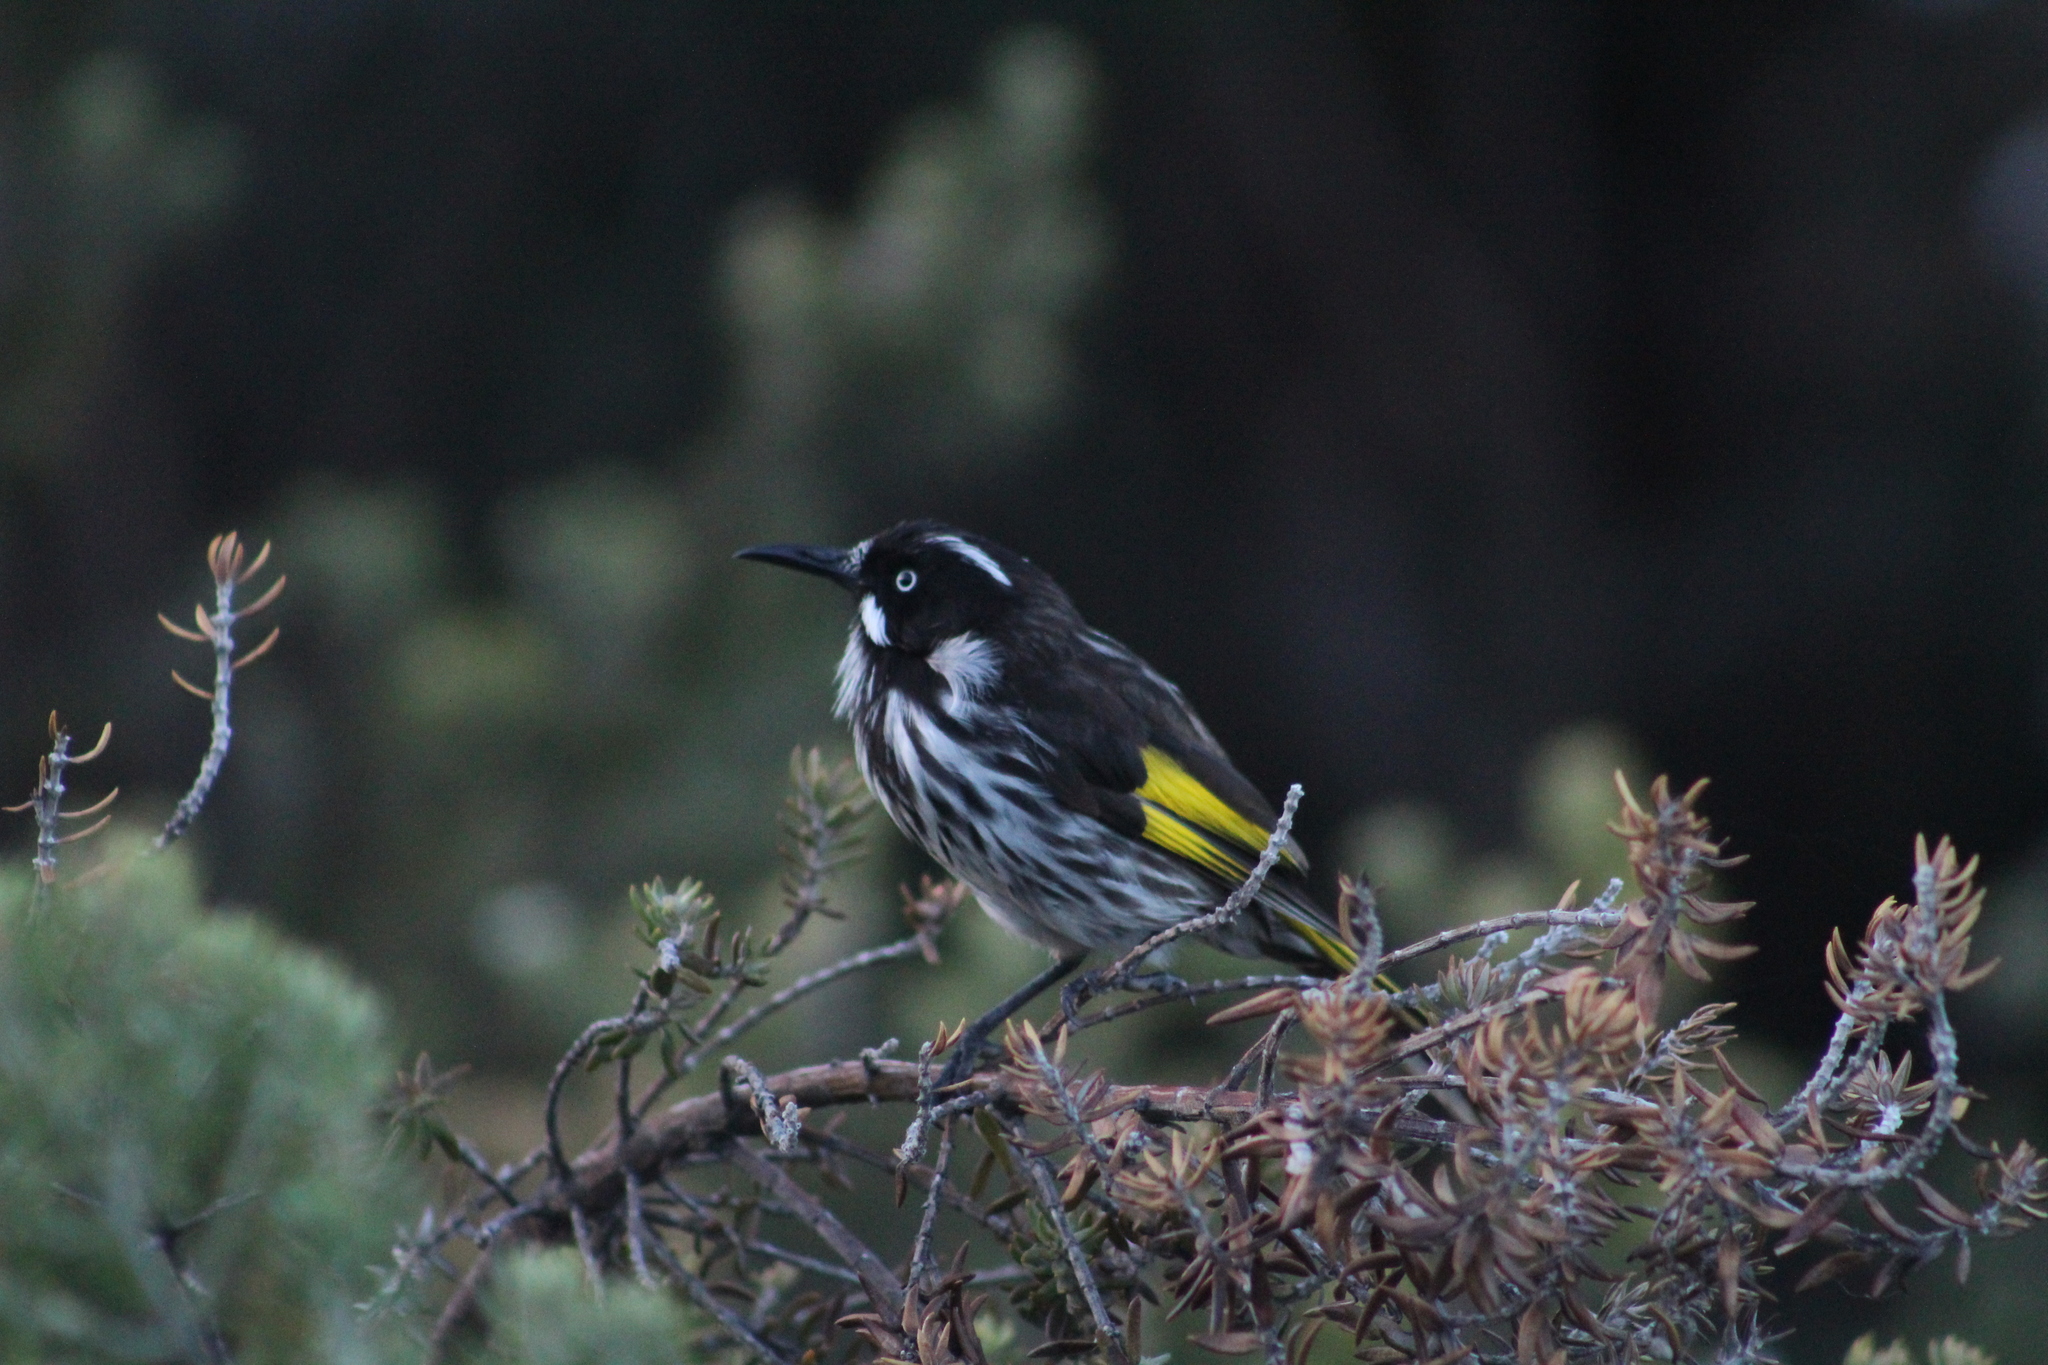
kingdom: Animalia
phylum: Chordata
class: Aves
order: Passeriformes
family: Meliphagidae
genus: Phylidonyris
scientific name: Phylidonyris novaehollandiae
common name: New holland honeyeater
